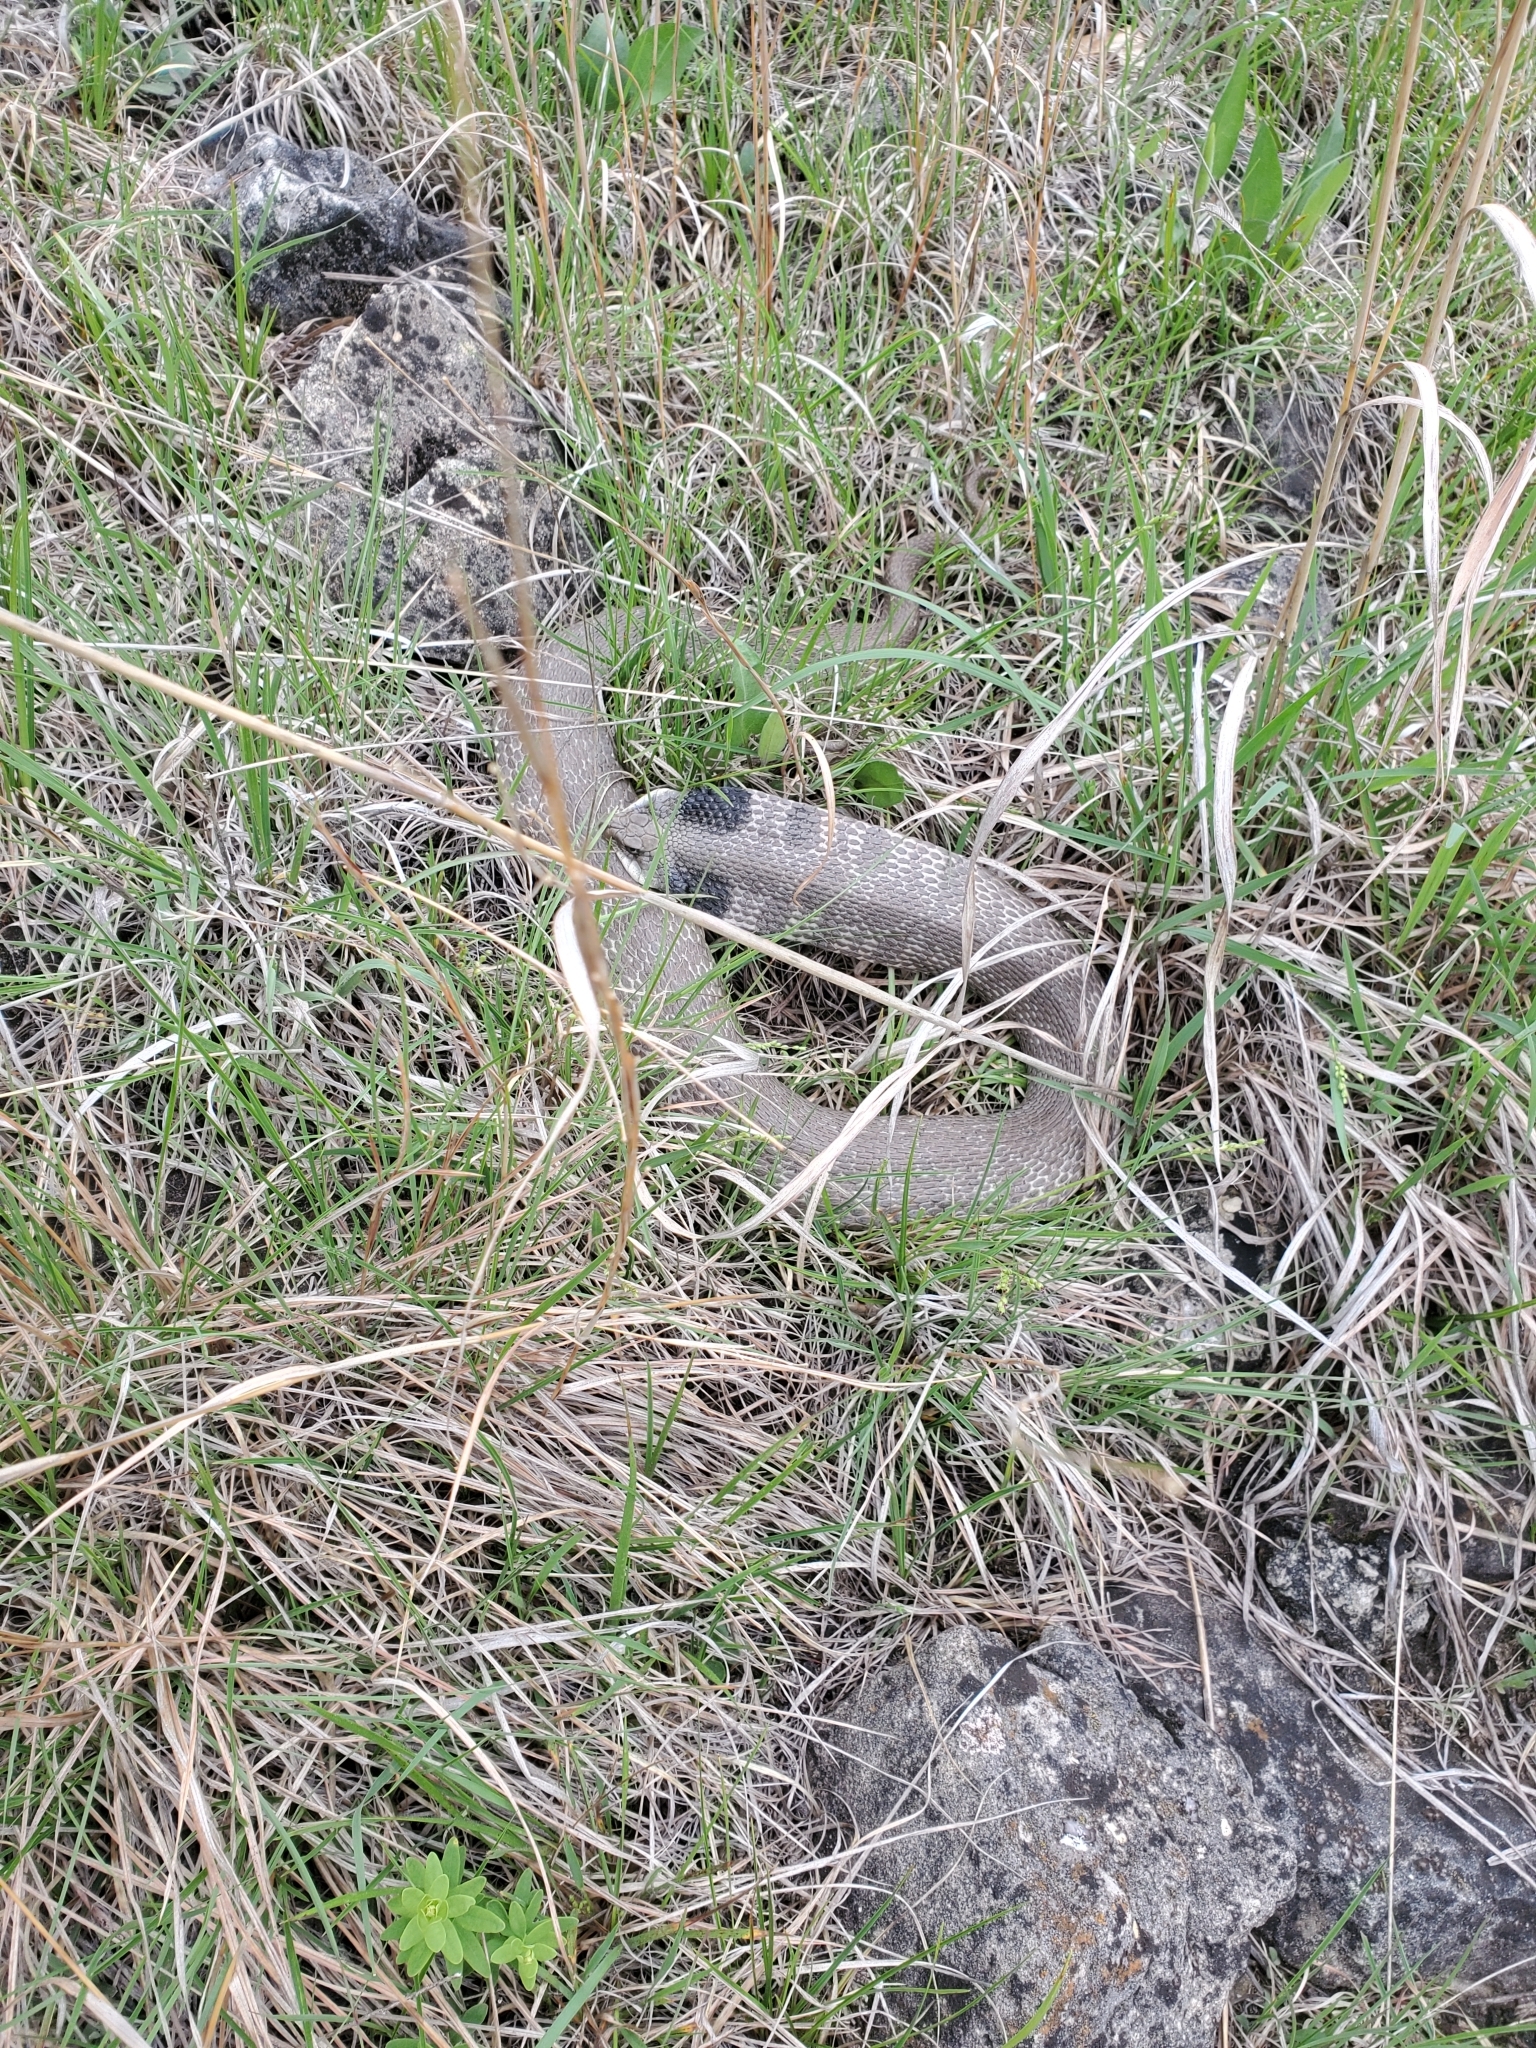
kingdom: Animalia
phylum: Chordata
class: Squamata
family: Colubridae
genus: Heterodon
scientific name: Heterodon platirhinos
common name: Eastern hognose snake
